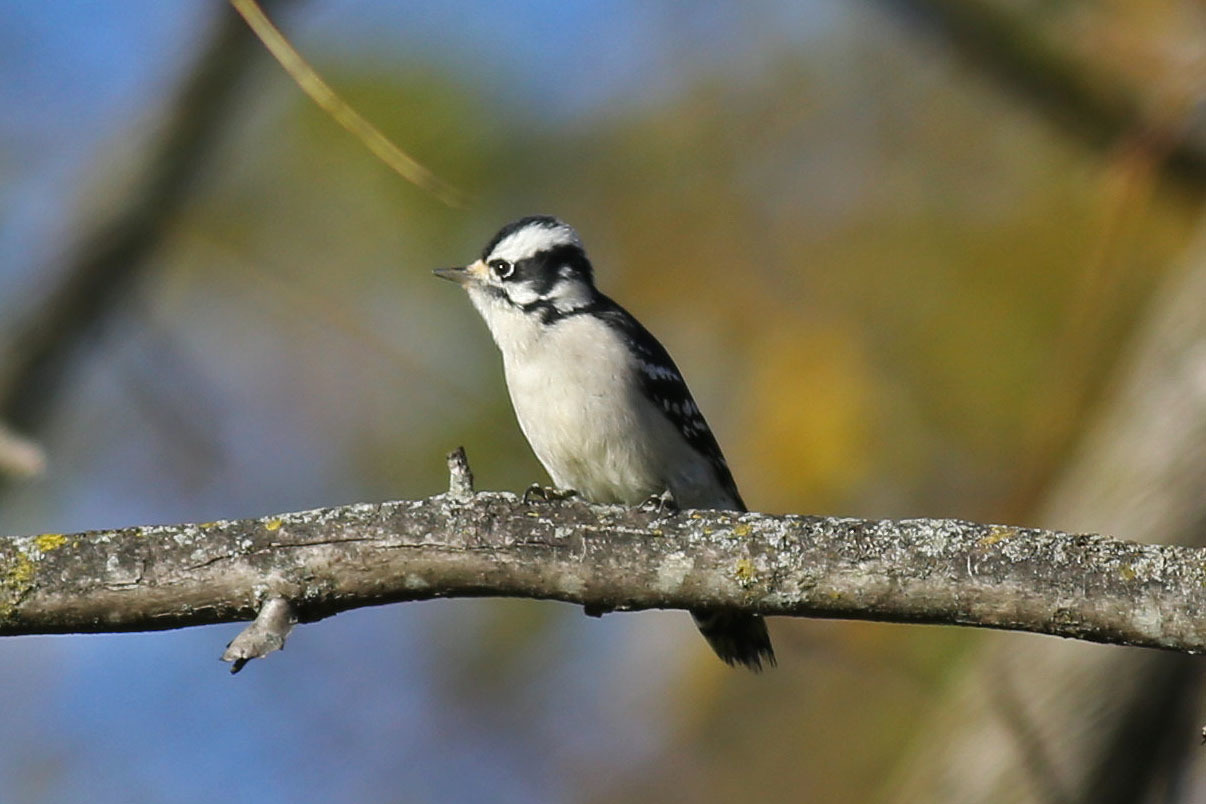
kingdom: Animalia
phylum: Chordata
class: Aves
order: Piciformes
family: Picidae
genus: Dryobates
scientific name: Dryobates pubescens
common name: Downy woodpecker
